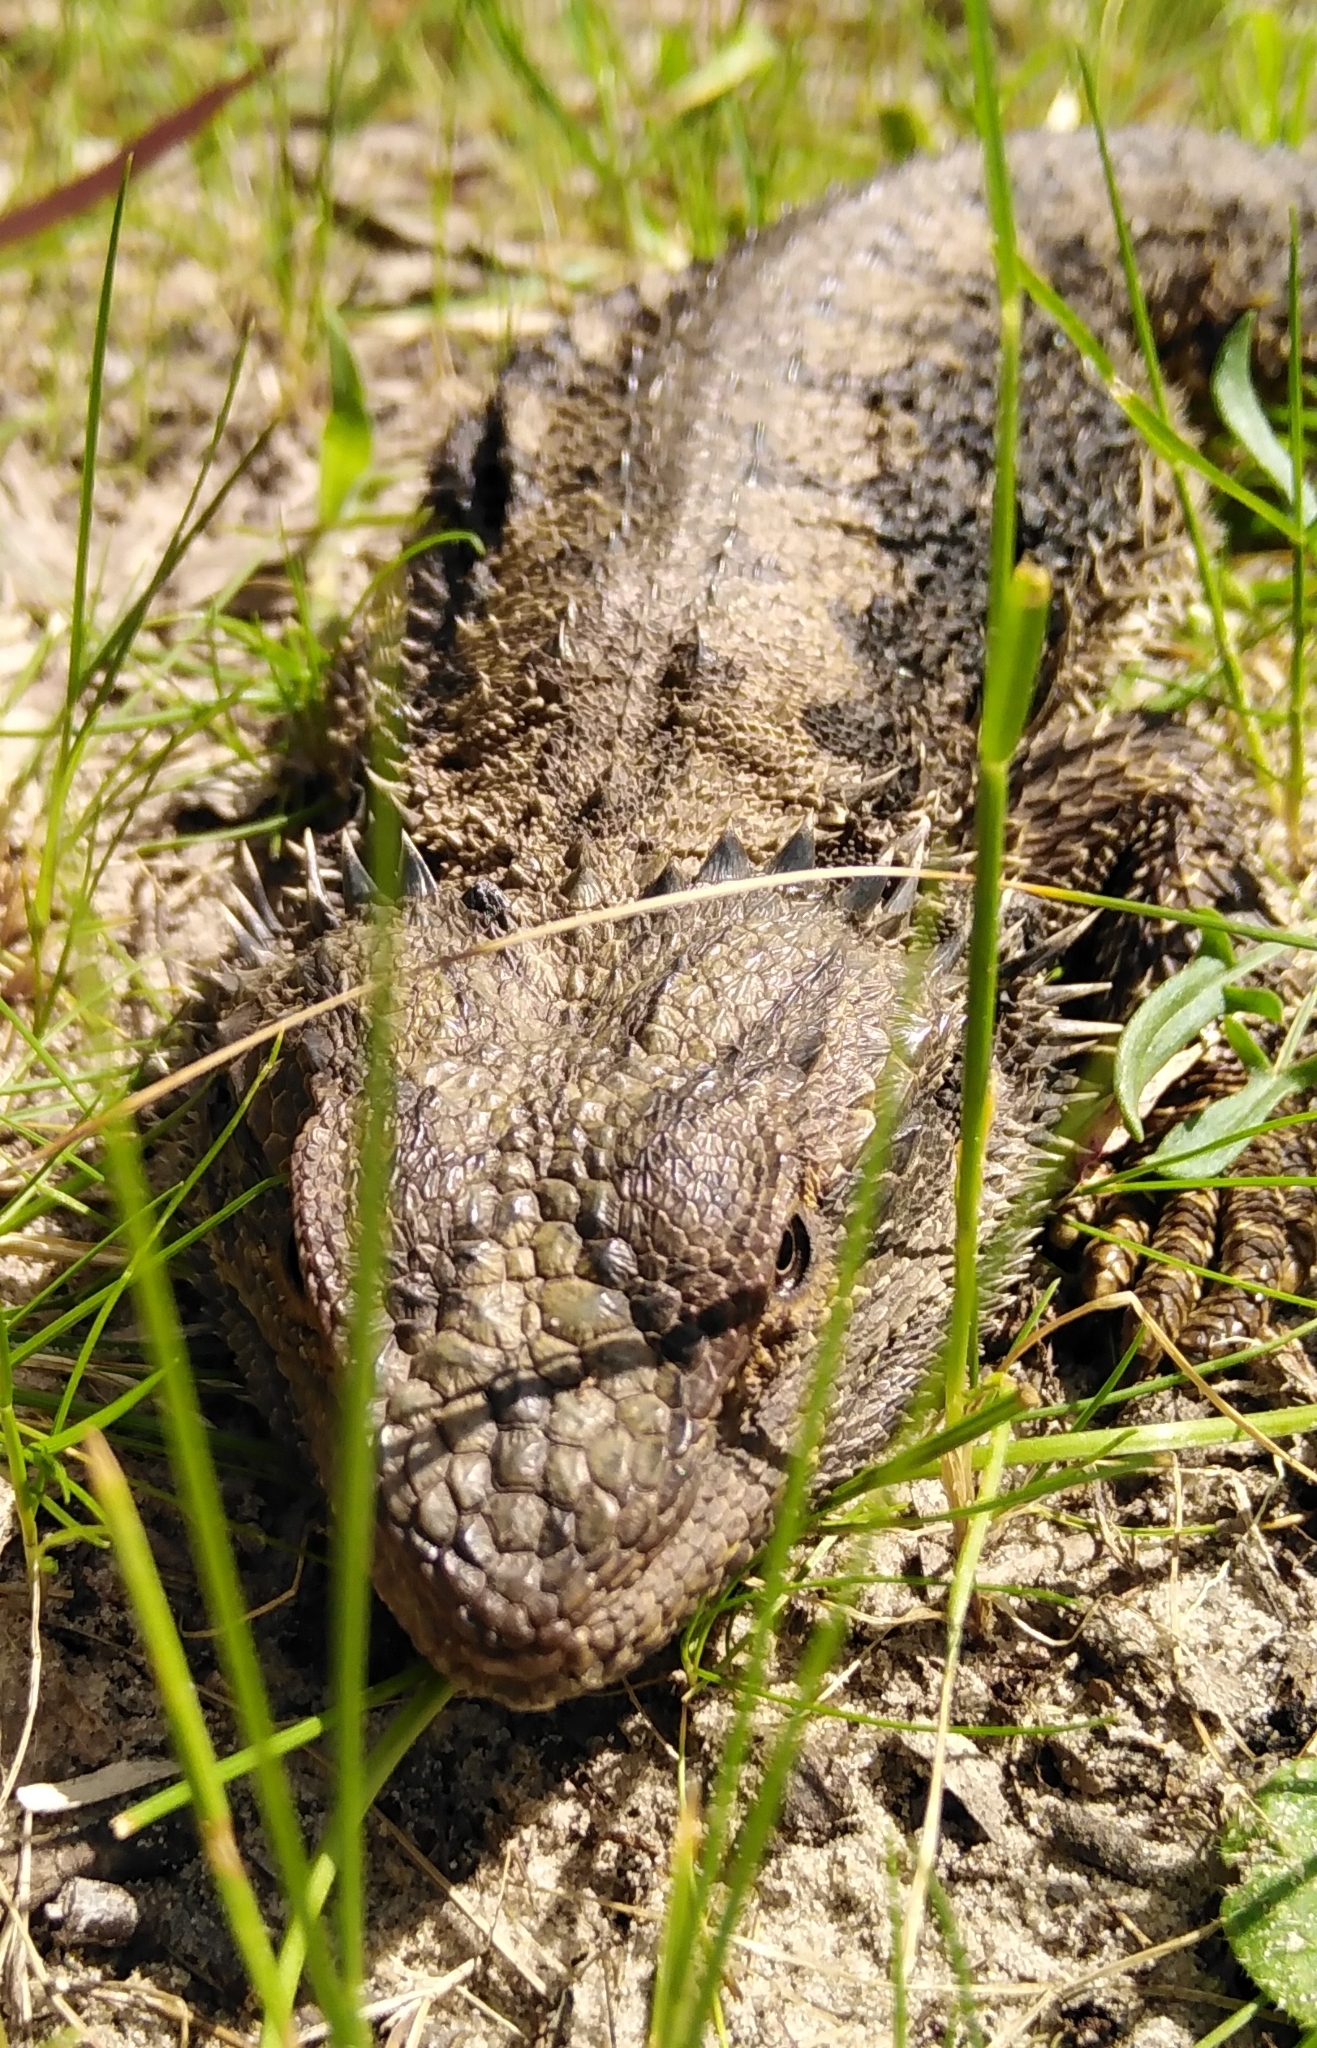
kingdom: Animalia
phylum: Chordata
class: Squamata
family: Agamidae
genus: Pogona
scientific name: Pogona barbata
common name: Bearded dragon
